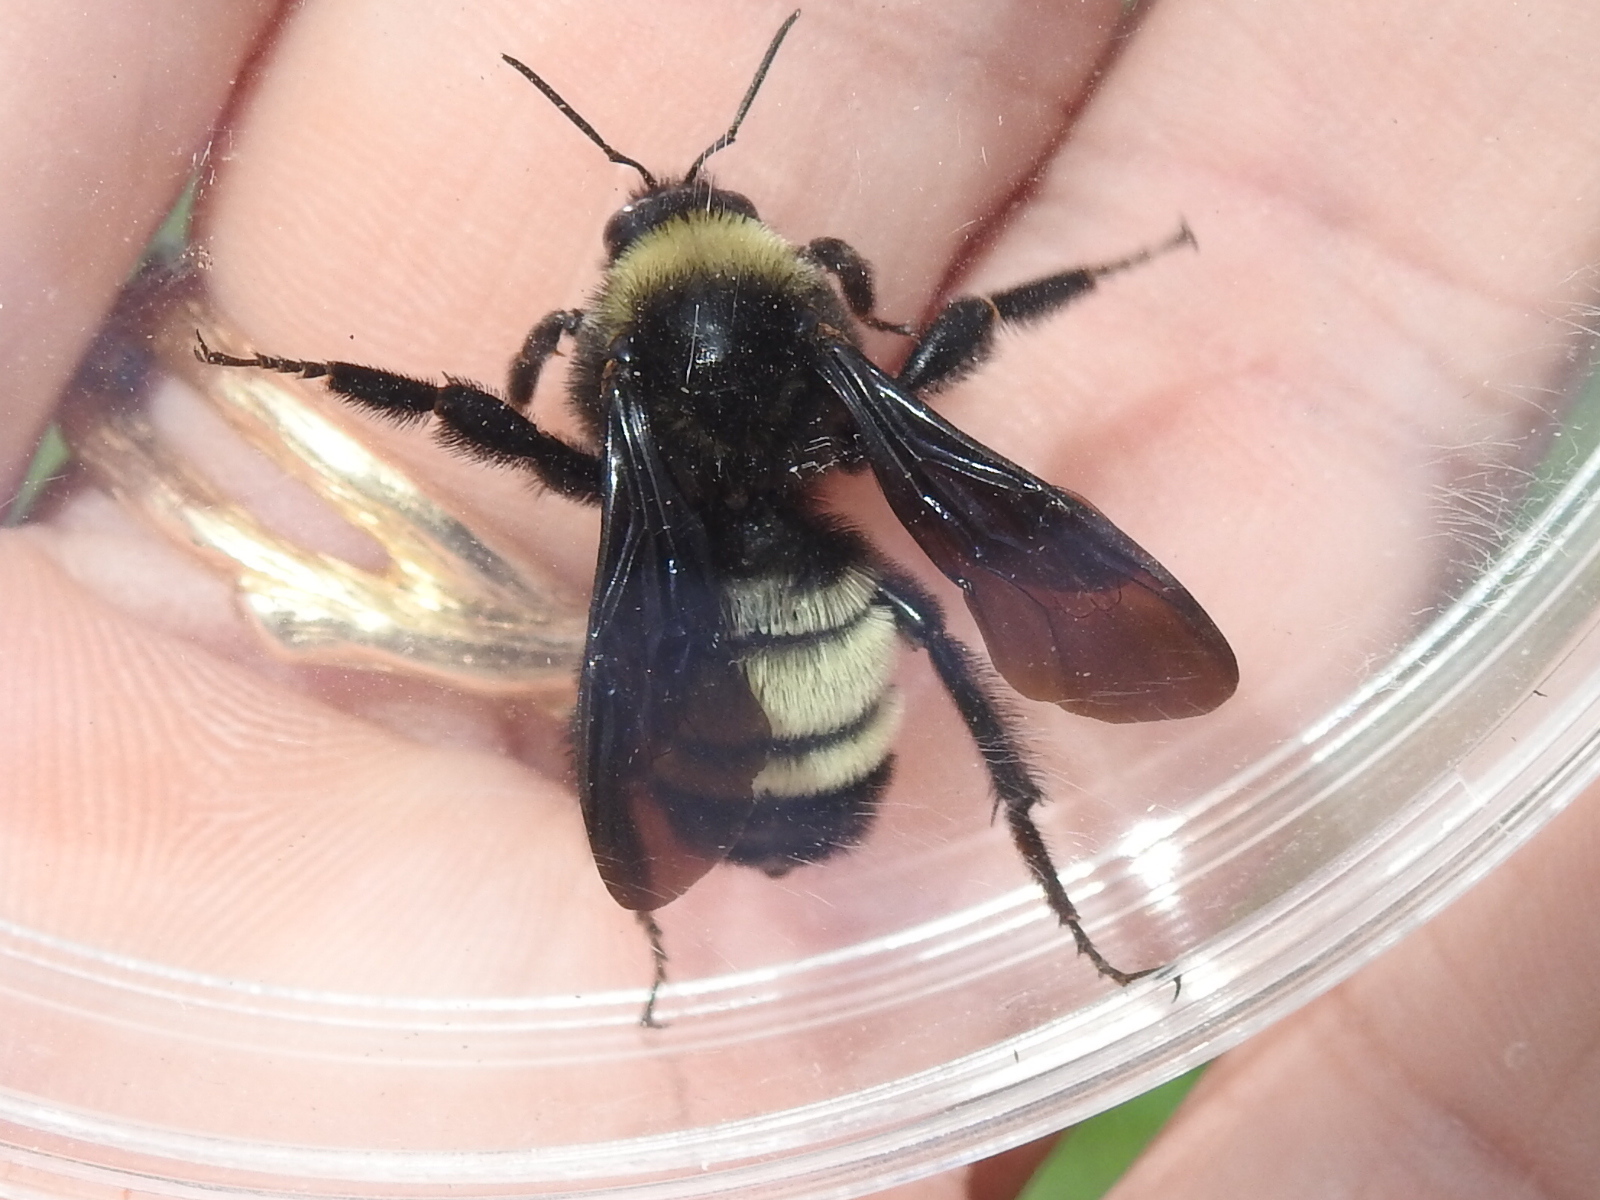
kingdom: Animalia
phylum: Arthropoda
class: Insecta
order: Hymenoptera
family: Apidae
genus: Bombus
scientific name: Bombus pensylvanicus
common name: Bumble bee
